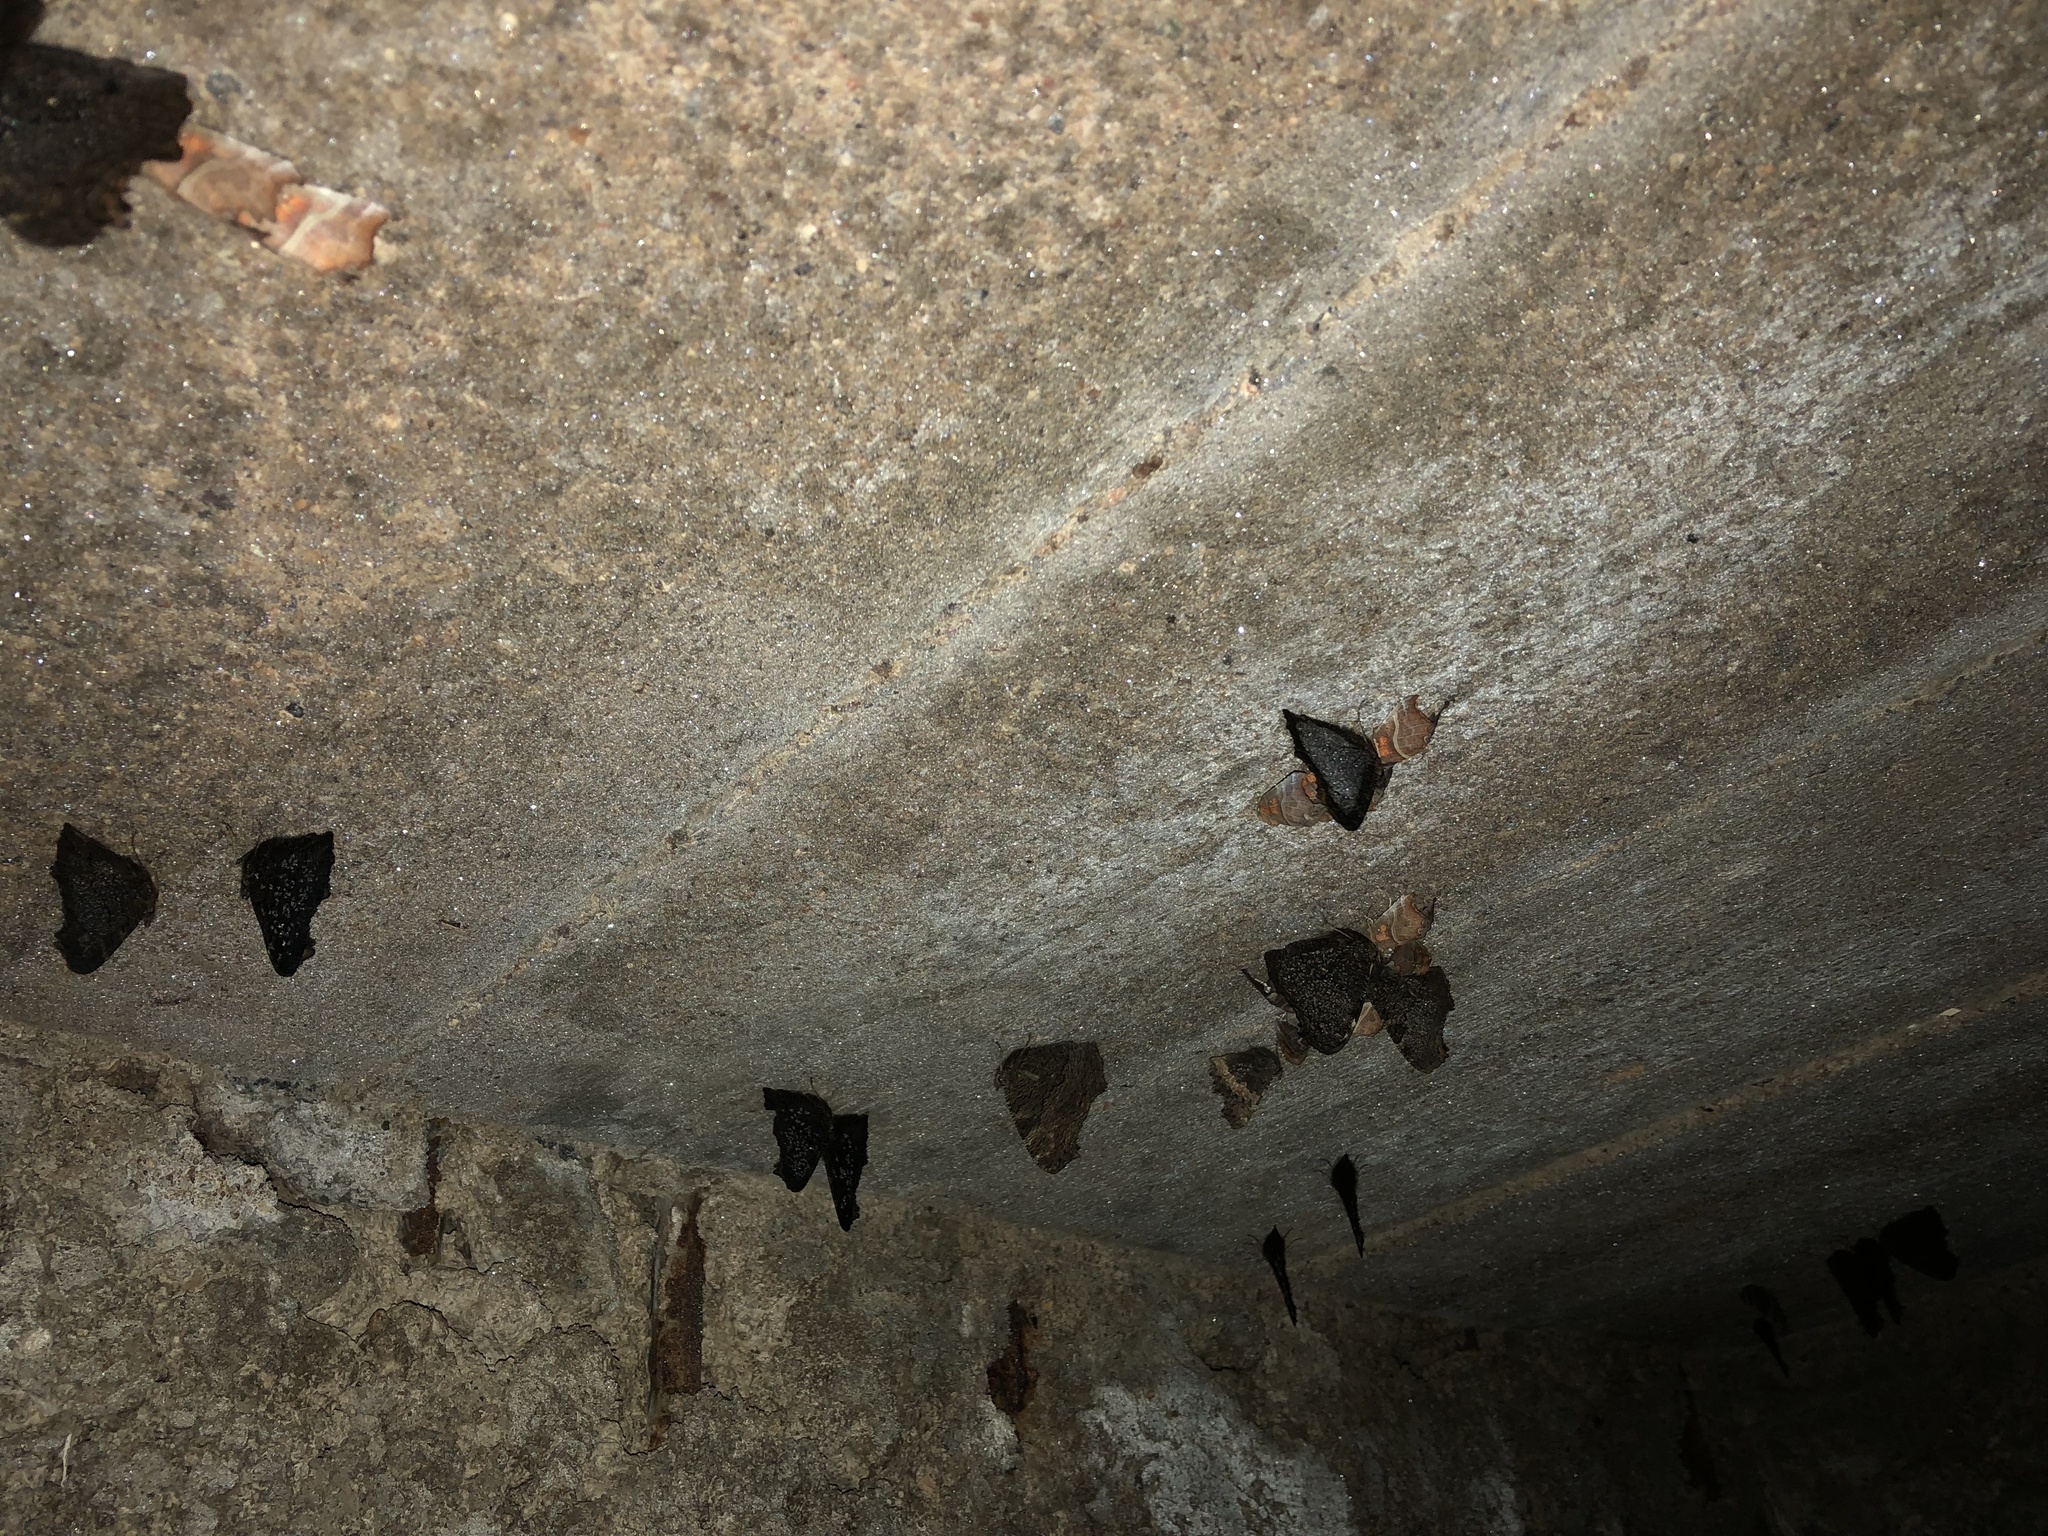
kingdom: Animalia
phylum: Arthropoda
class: Insecta
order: Lepidoptera
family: Nymphalidae
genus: Aglais
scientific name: Aglais io
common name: Peacock
